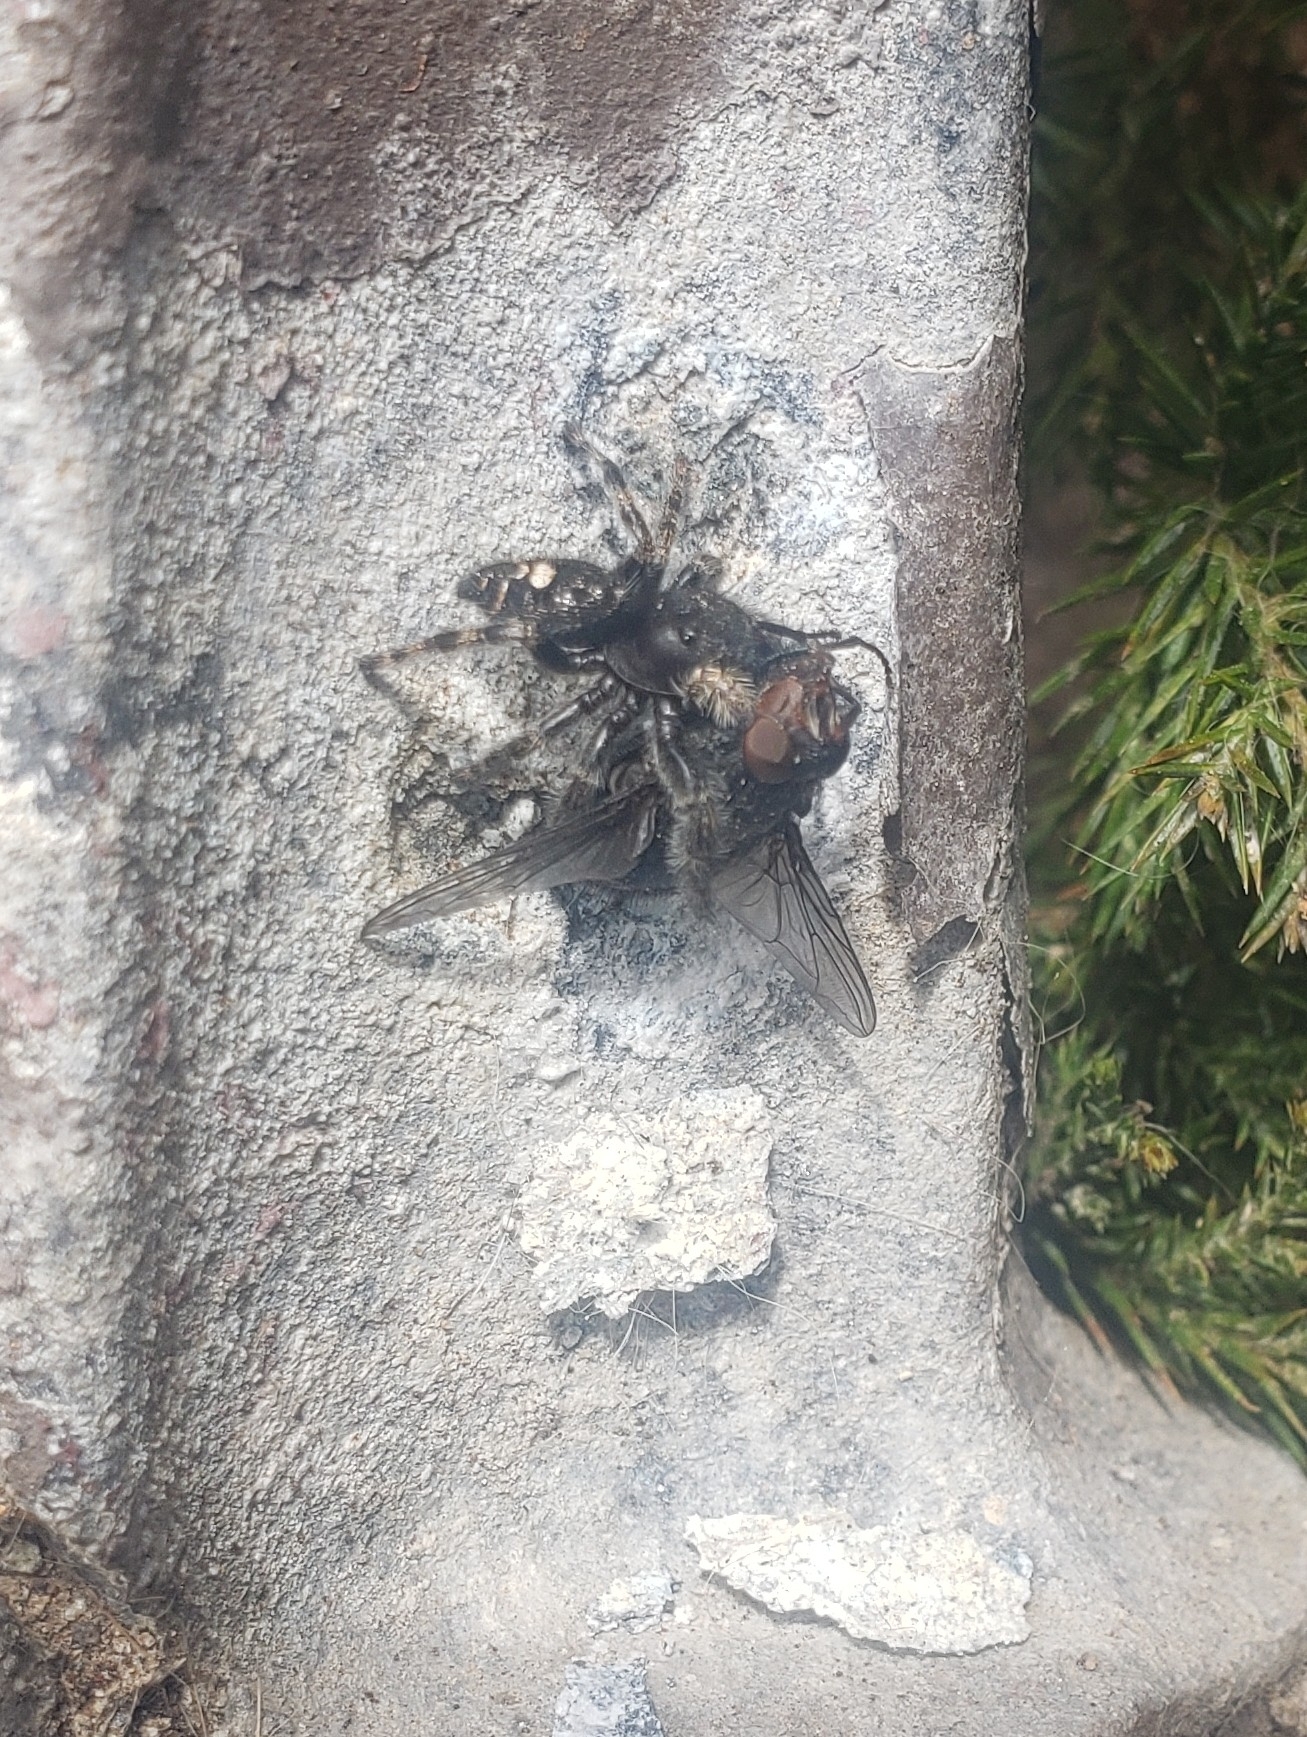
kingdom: Animalia
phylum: Arthropoda
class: Arachnida
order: Araneae
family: Salticidae
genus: Phidippus
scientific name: Phidippus audax
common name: Bold jumper
